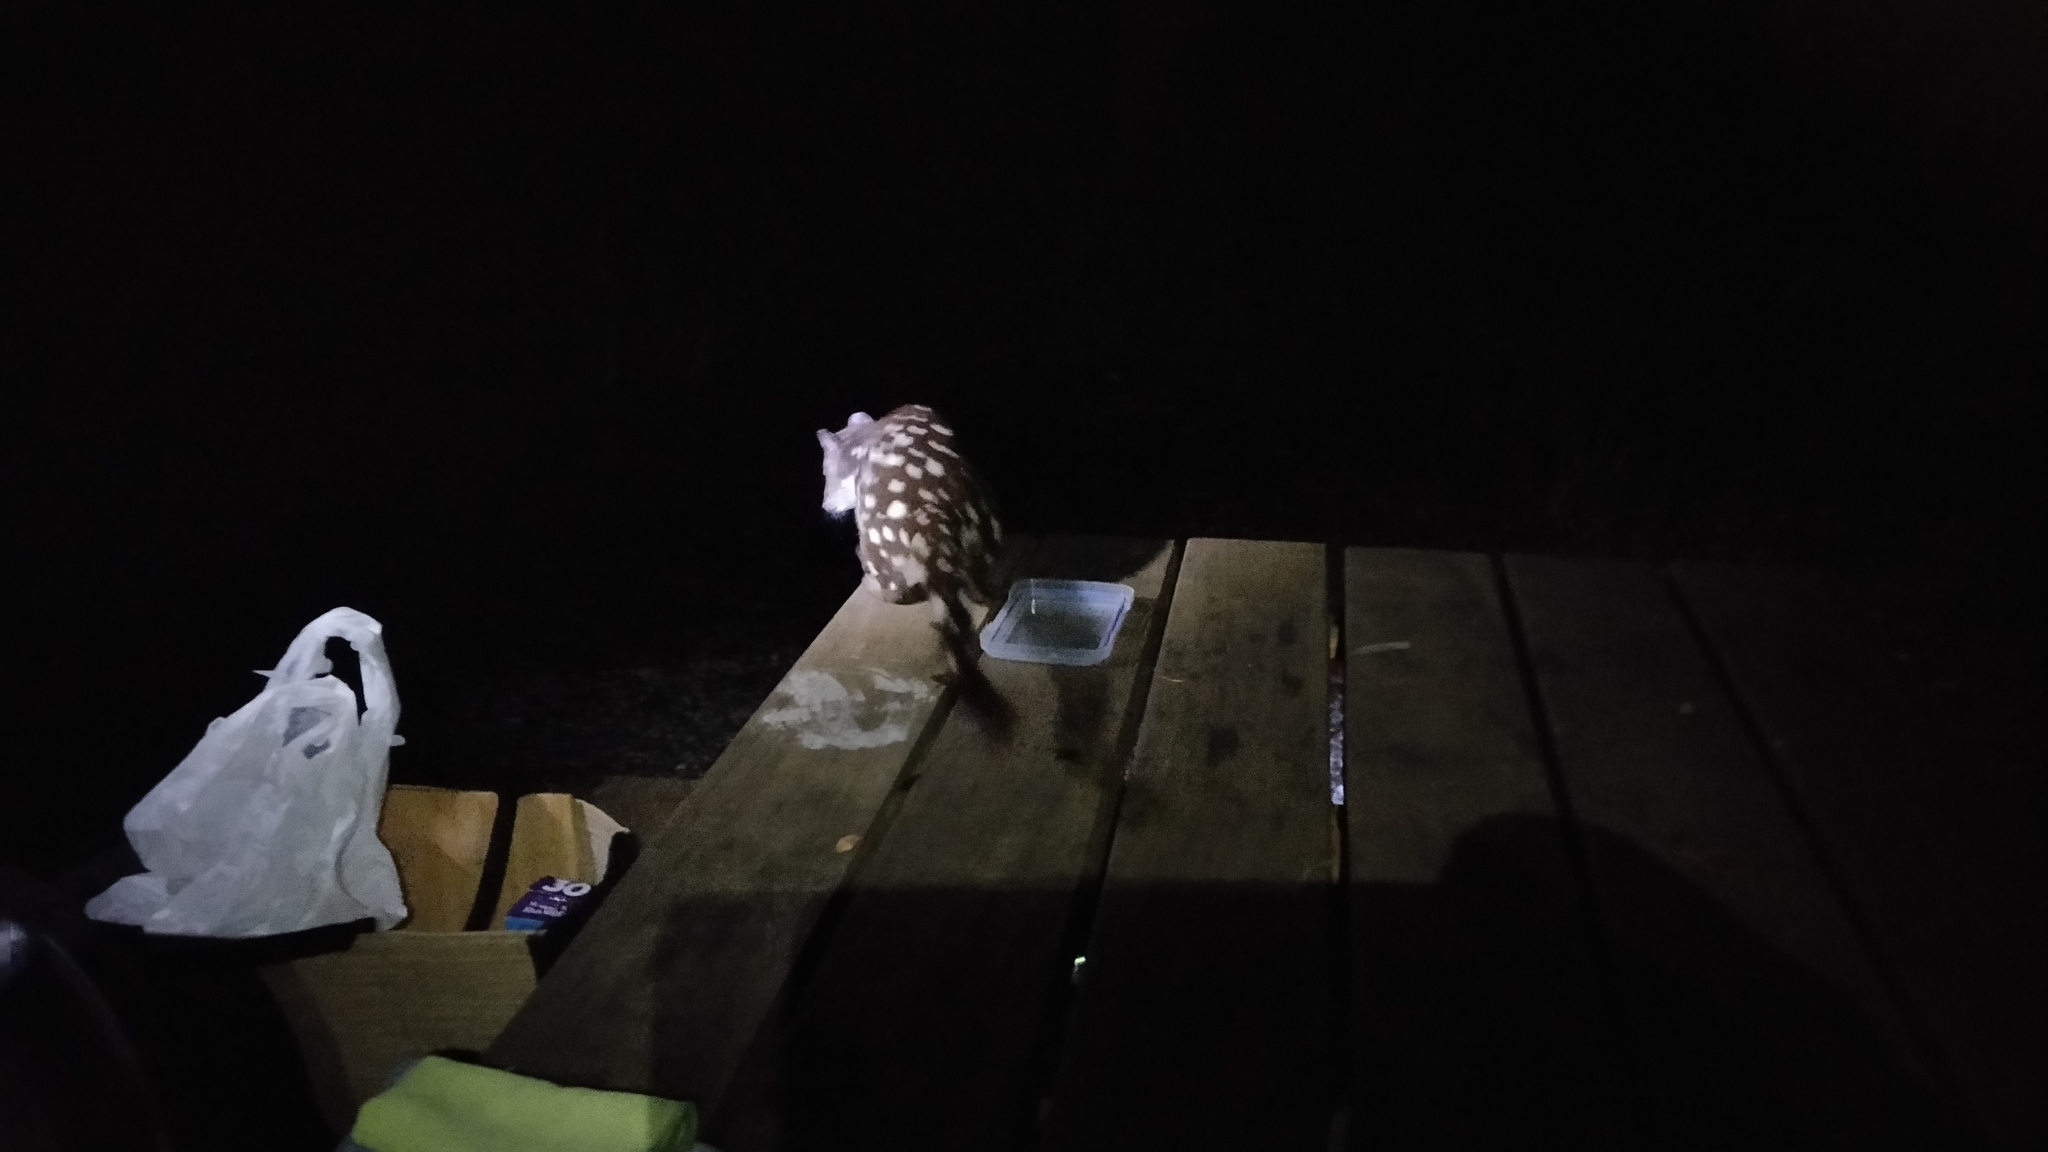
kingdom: Animalia
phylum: Chordata
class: Mammalia
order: Dasyuromorphia
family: Dasyuridae
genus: Dasyurus
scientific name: Dasyurus maculatus
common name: Tiger quoll
